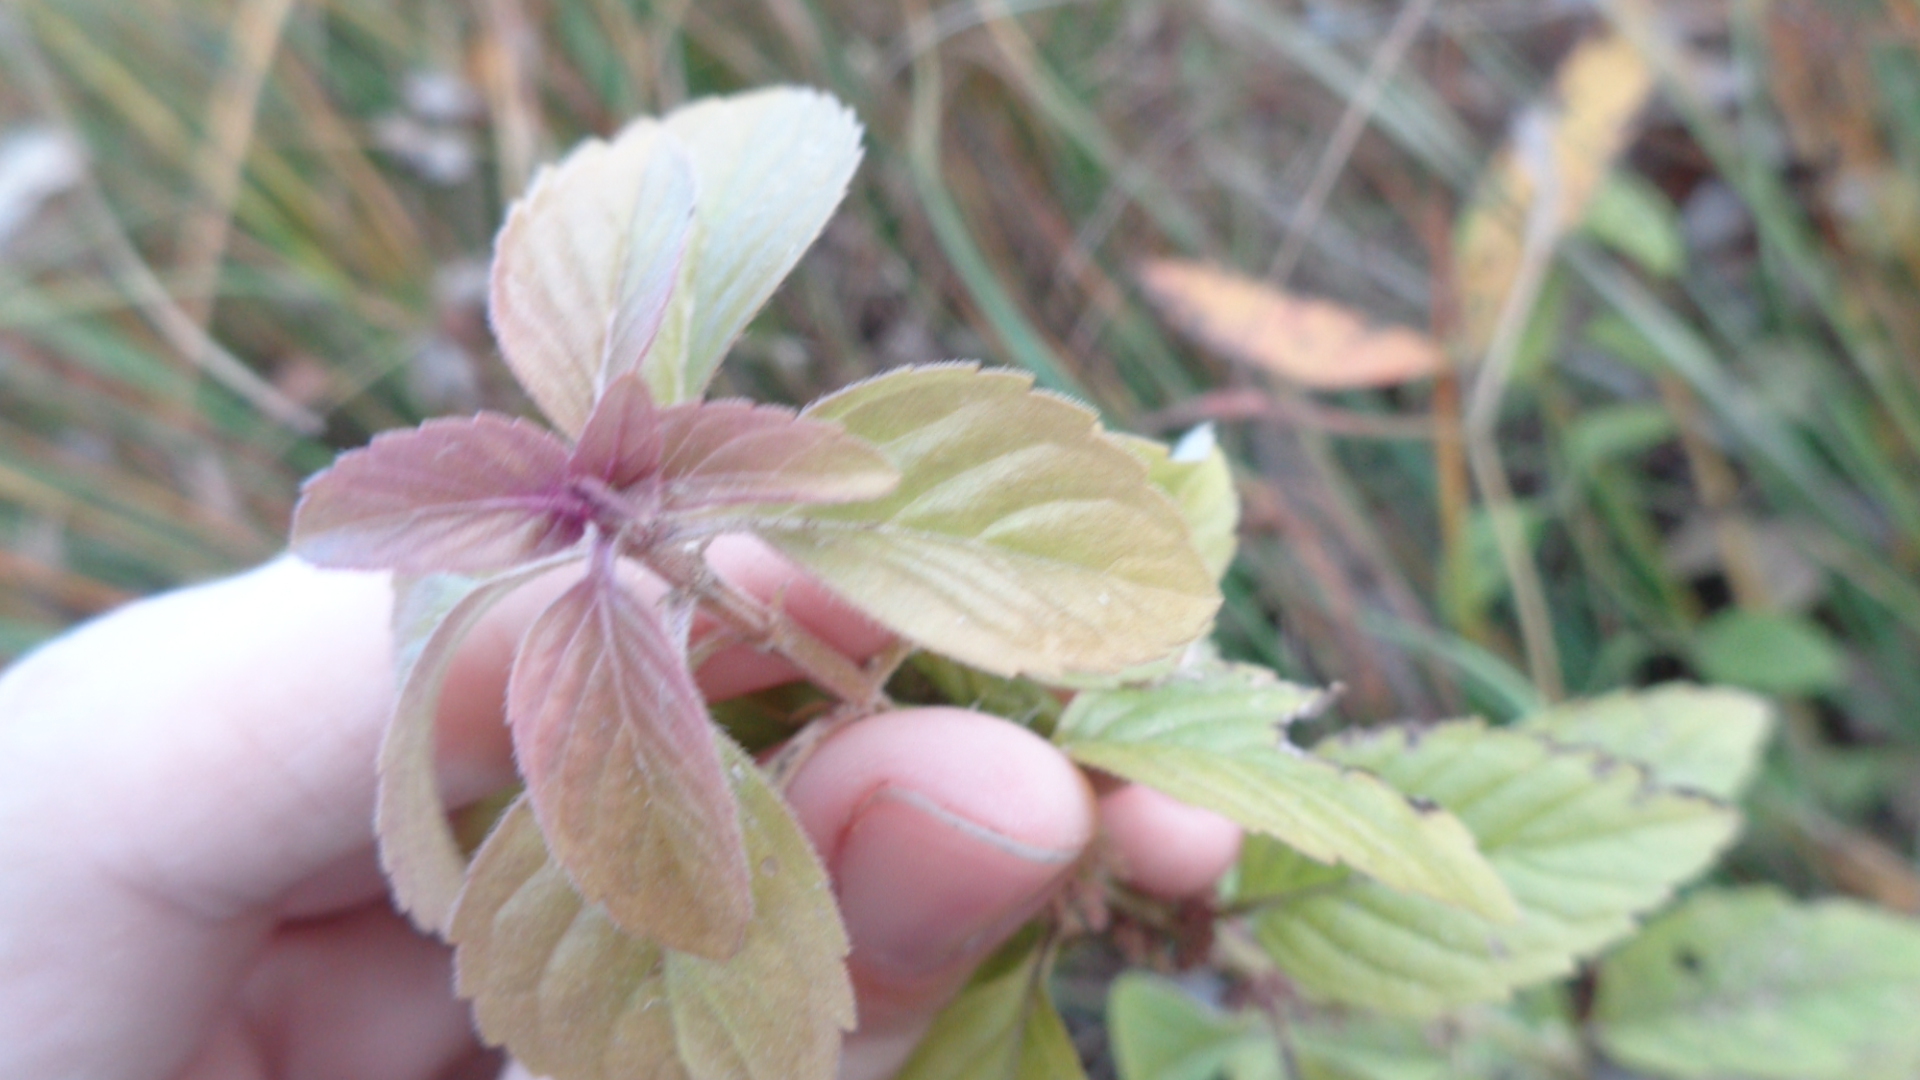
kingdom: Plantae
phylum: Tracheophyta
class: Magnoliopsida
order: Lamiales
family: Lamiaceae
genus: Mentha
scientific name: Mentha arvensis
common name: Corn mint
